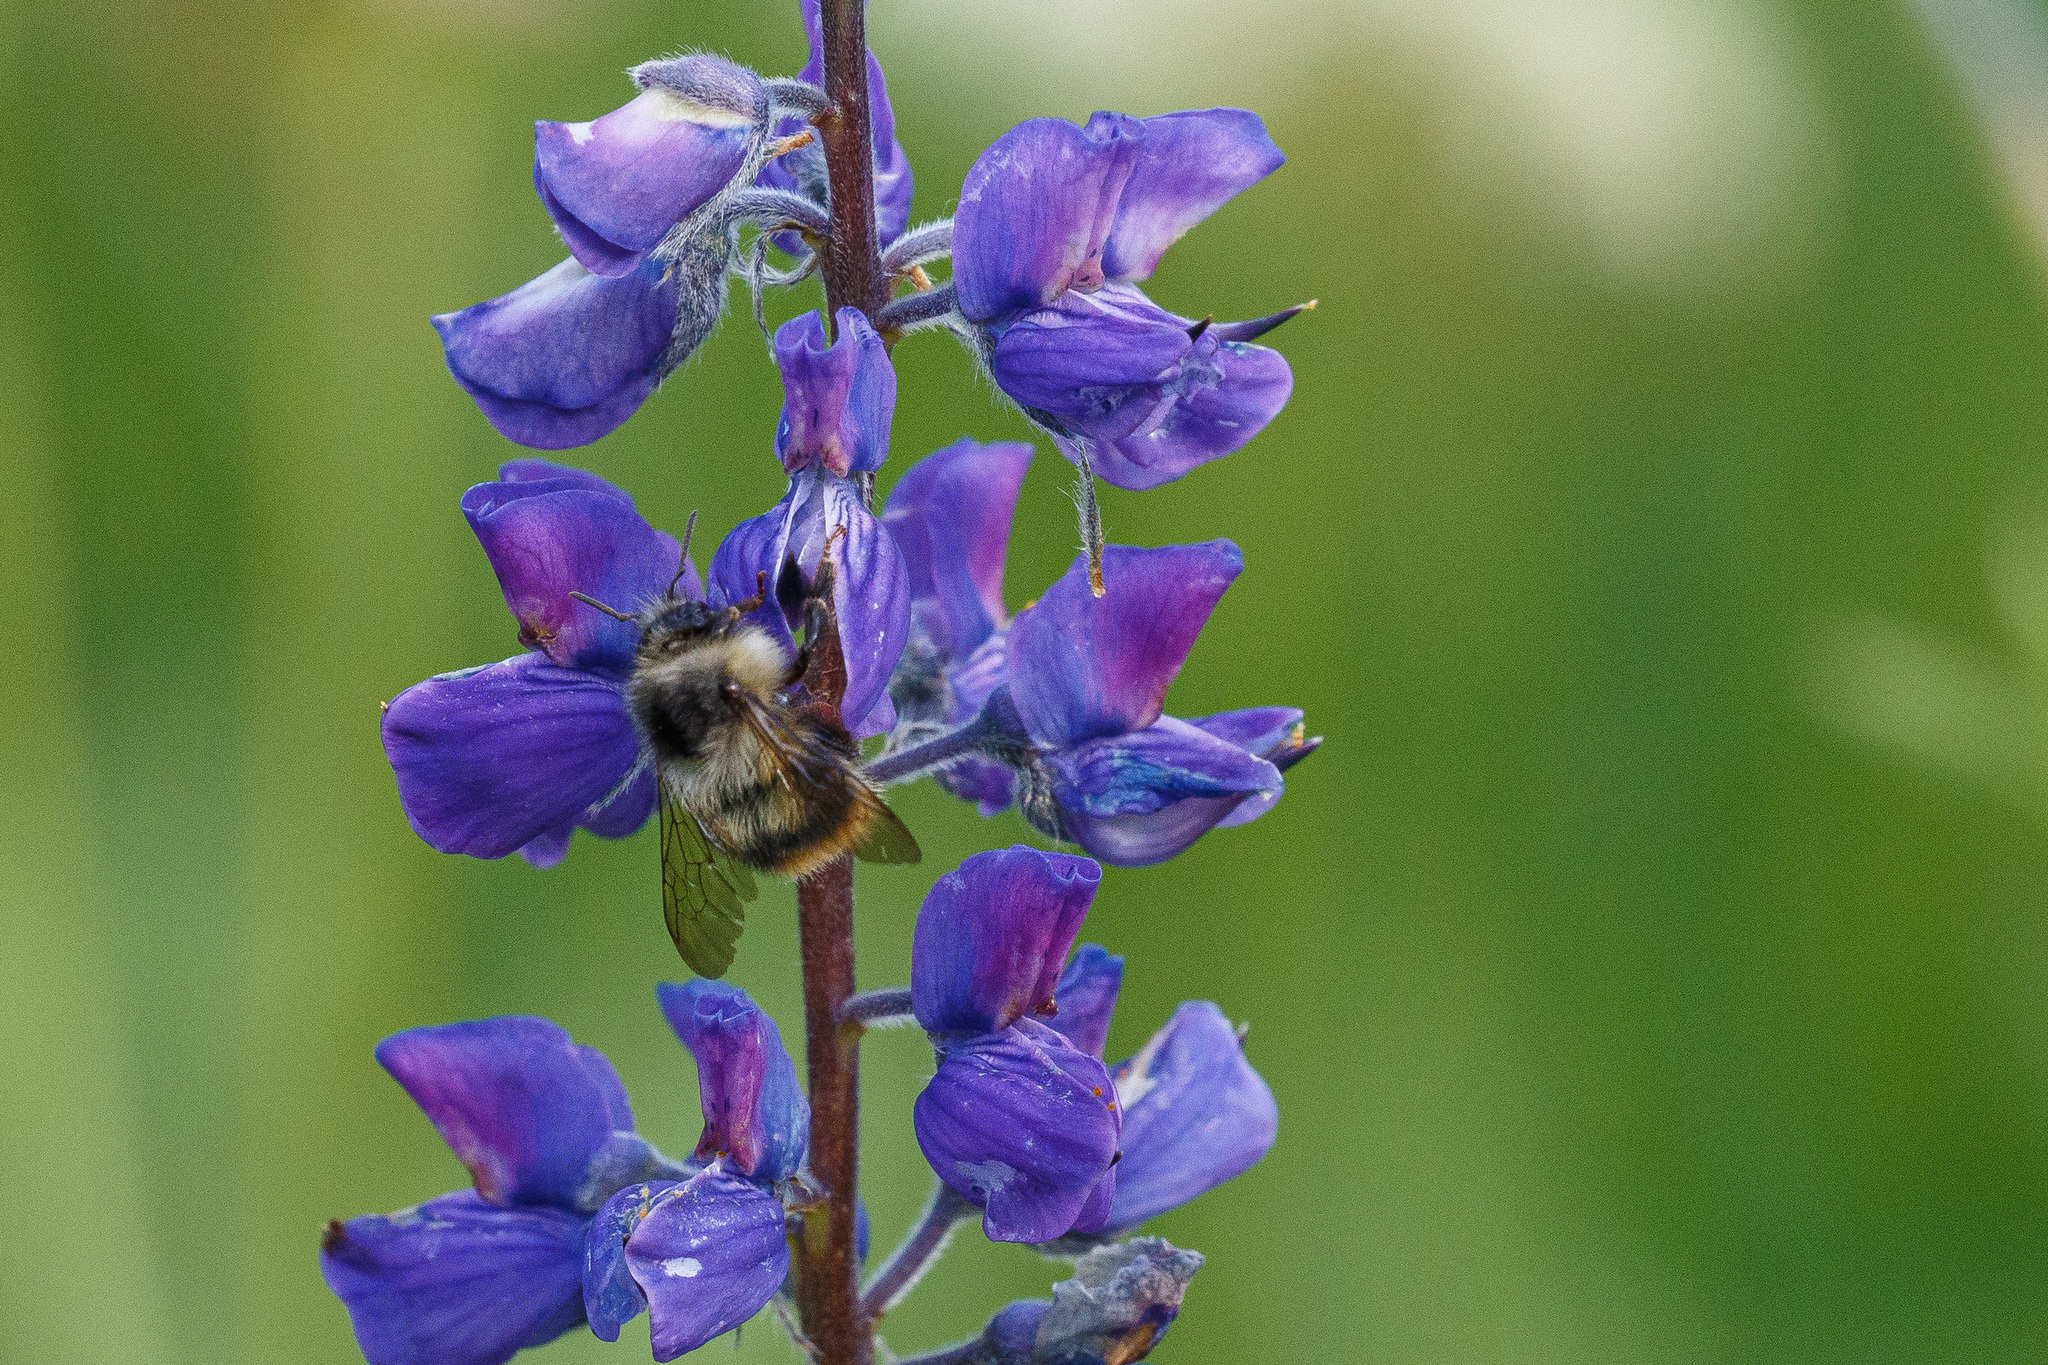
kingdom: Animalia
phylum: Arthropoda
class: Insecta
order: Hymenoptera
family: Apidae
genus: Bombus
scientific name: Bombus mixtus
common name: Fuzzy-horned bumble bee
